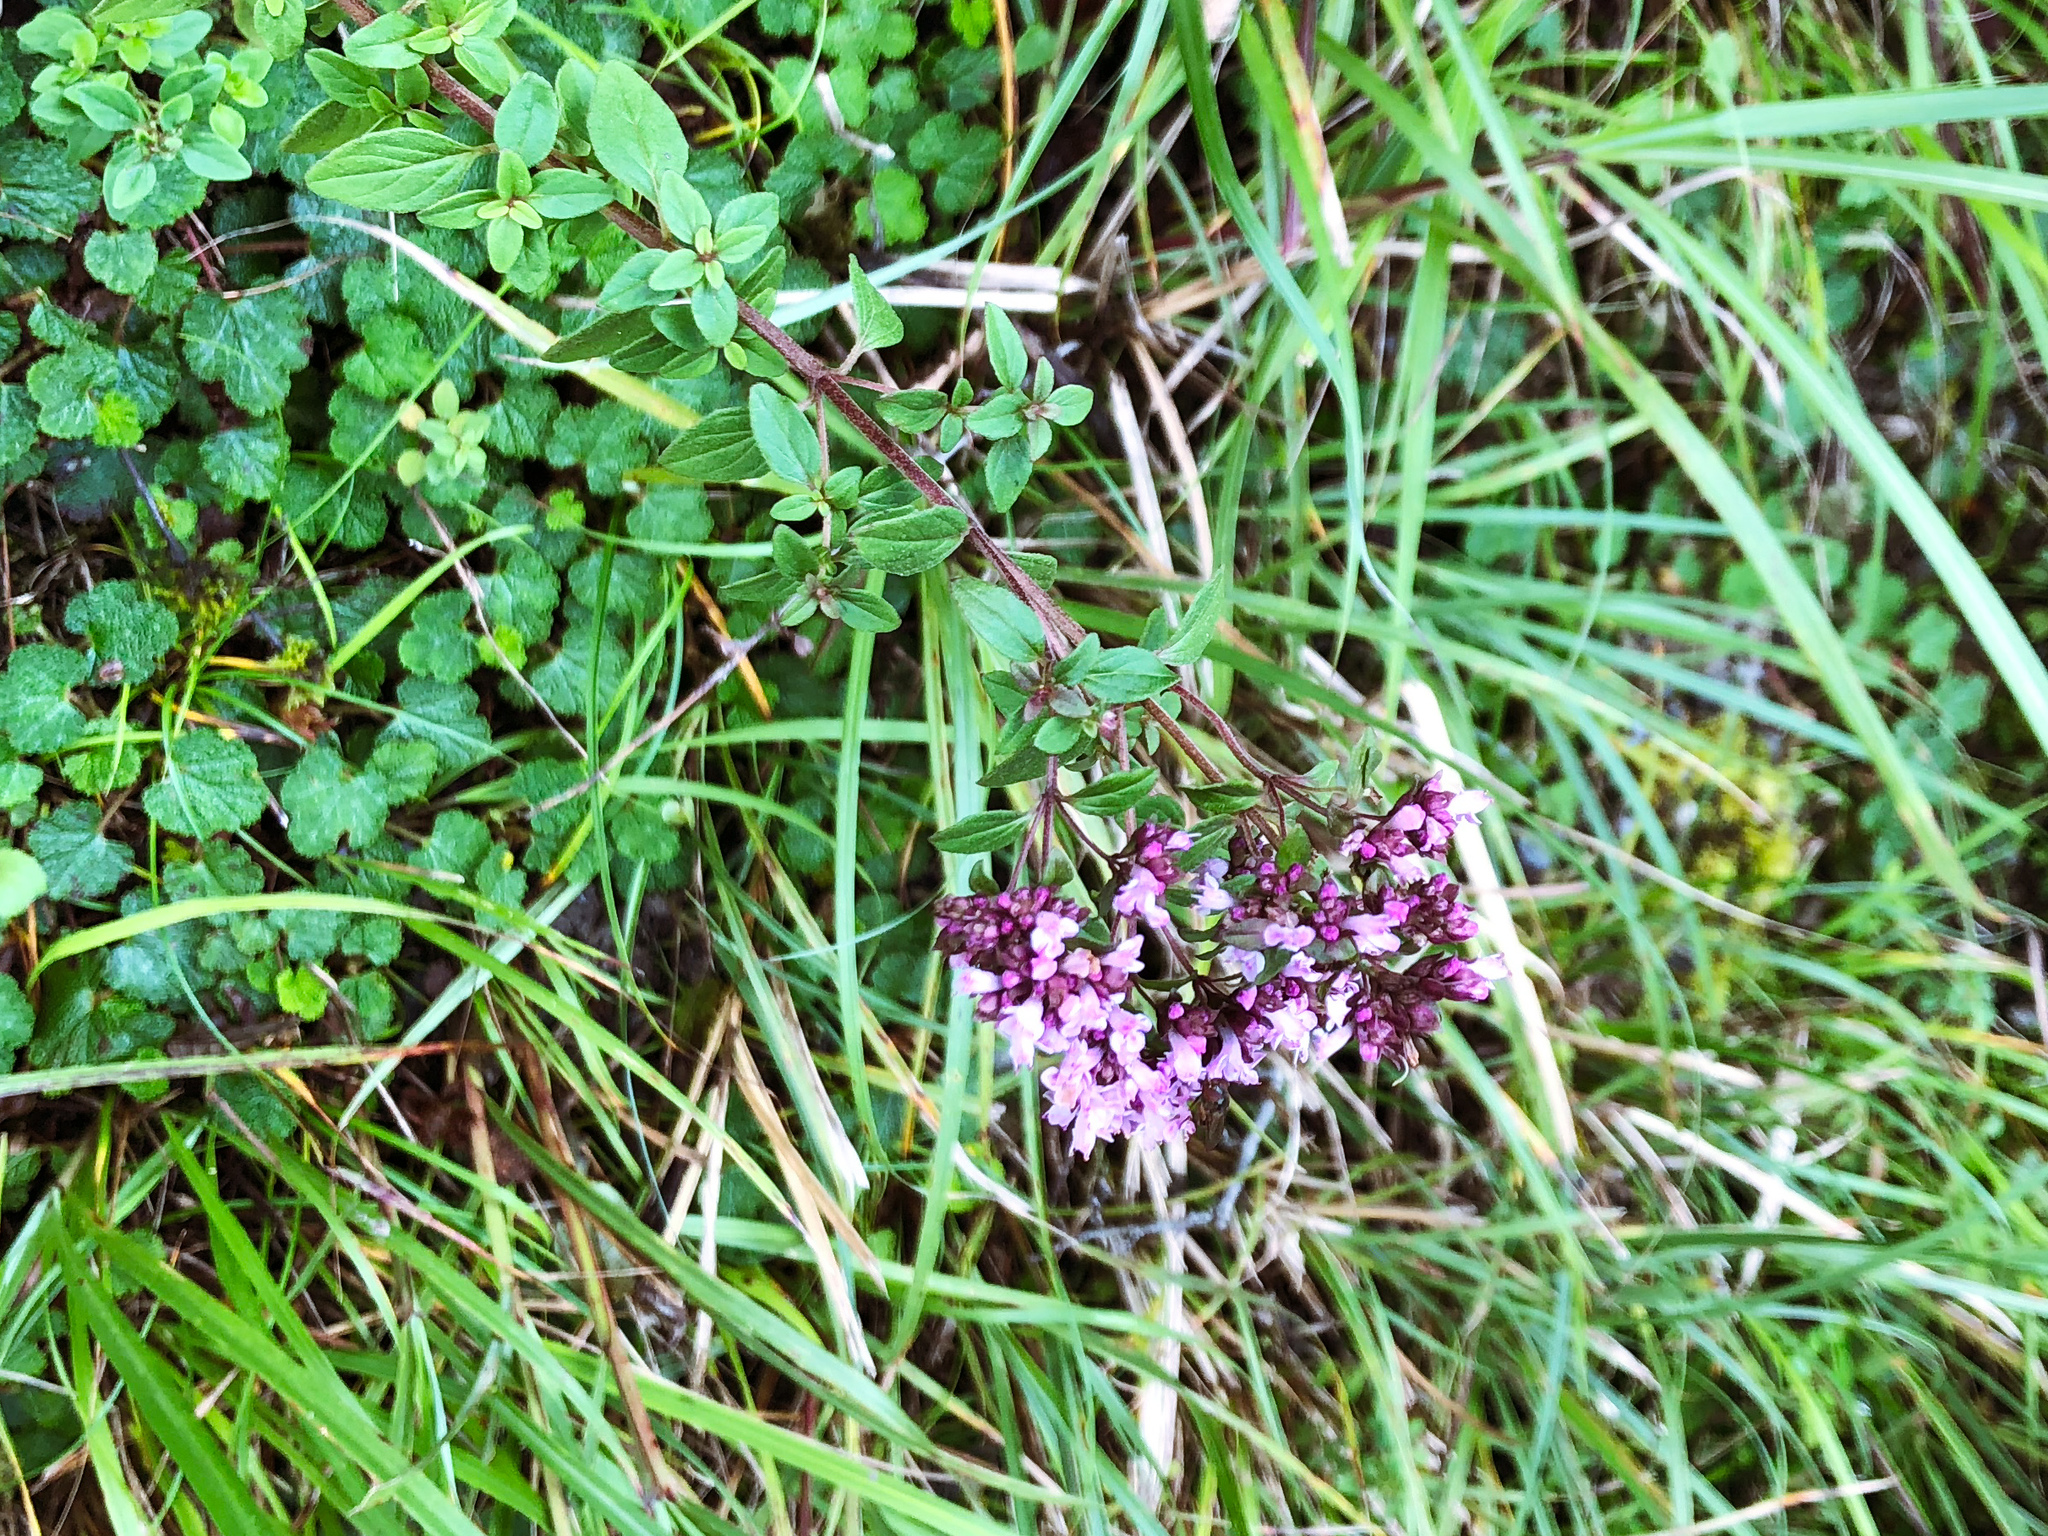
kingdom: Plantae
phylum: Tracheophyta
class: Magnoliopsida
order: Lamiales
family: Lamiaceae
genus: Origanum
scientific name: Origanum vulgare
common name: Wild marjoram
